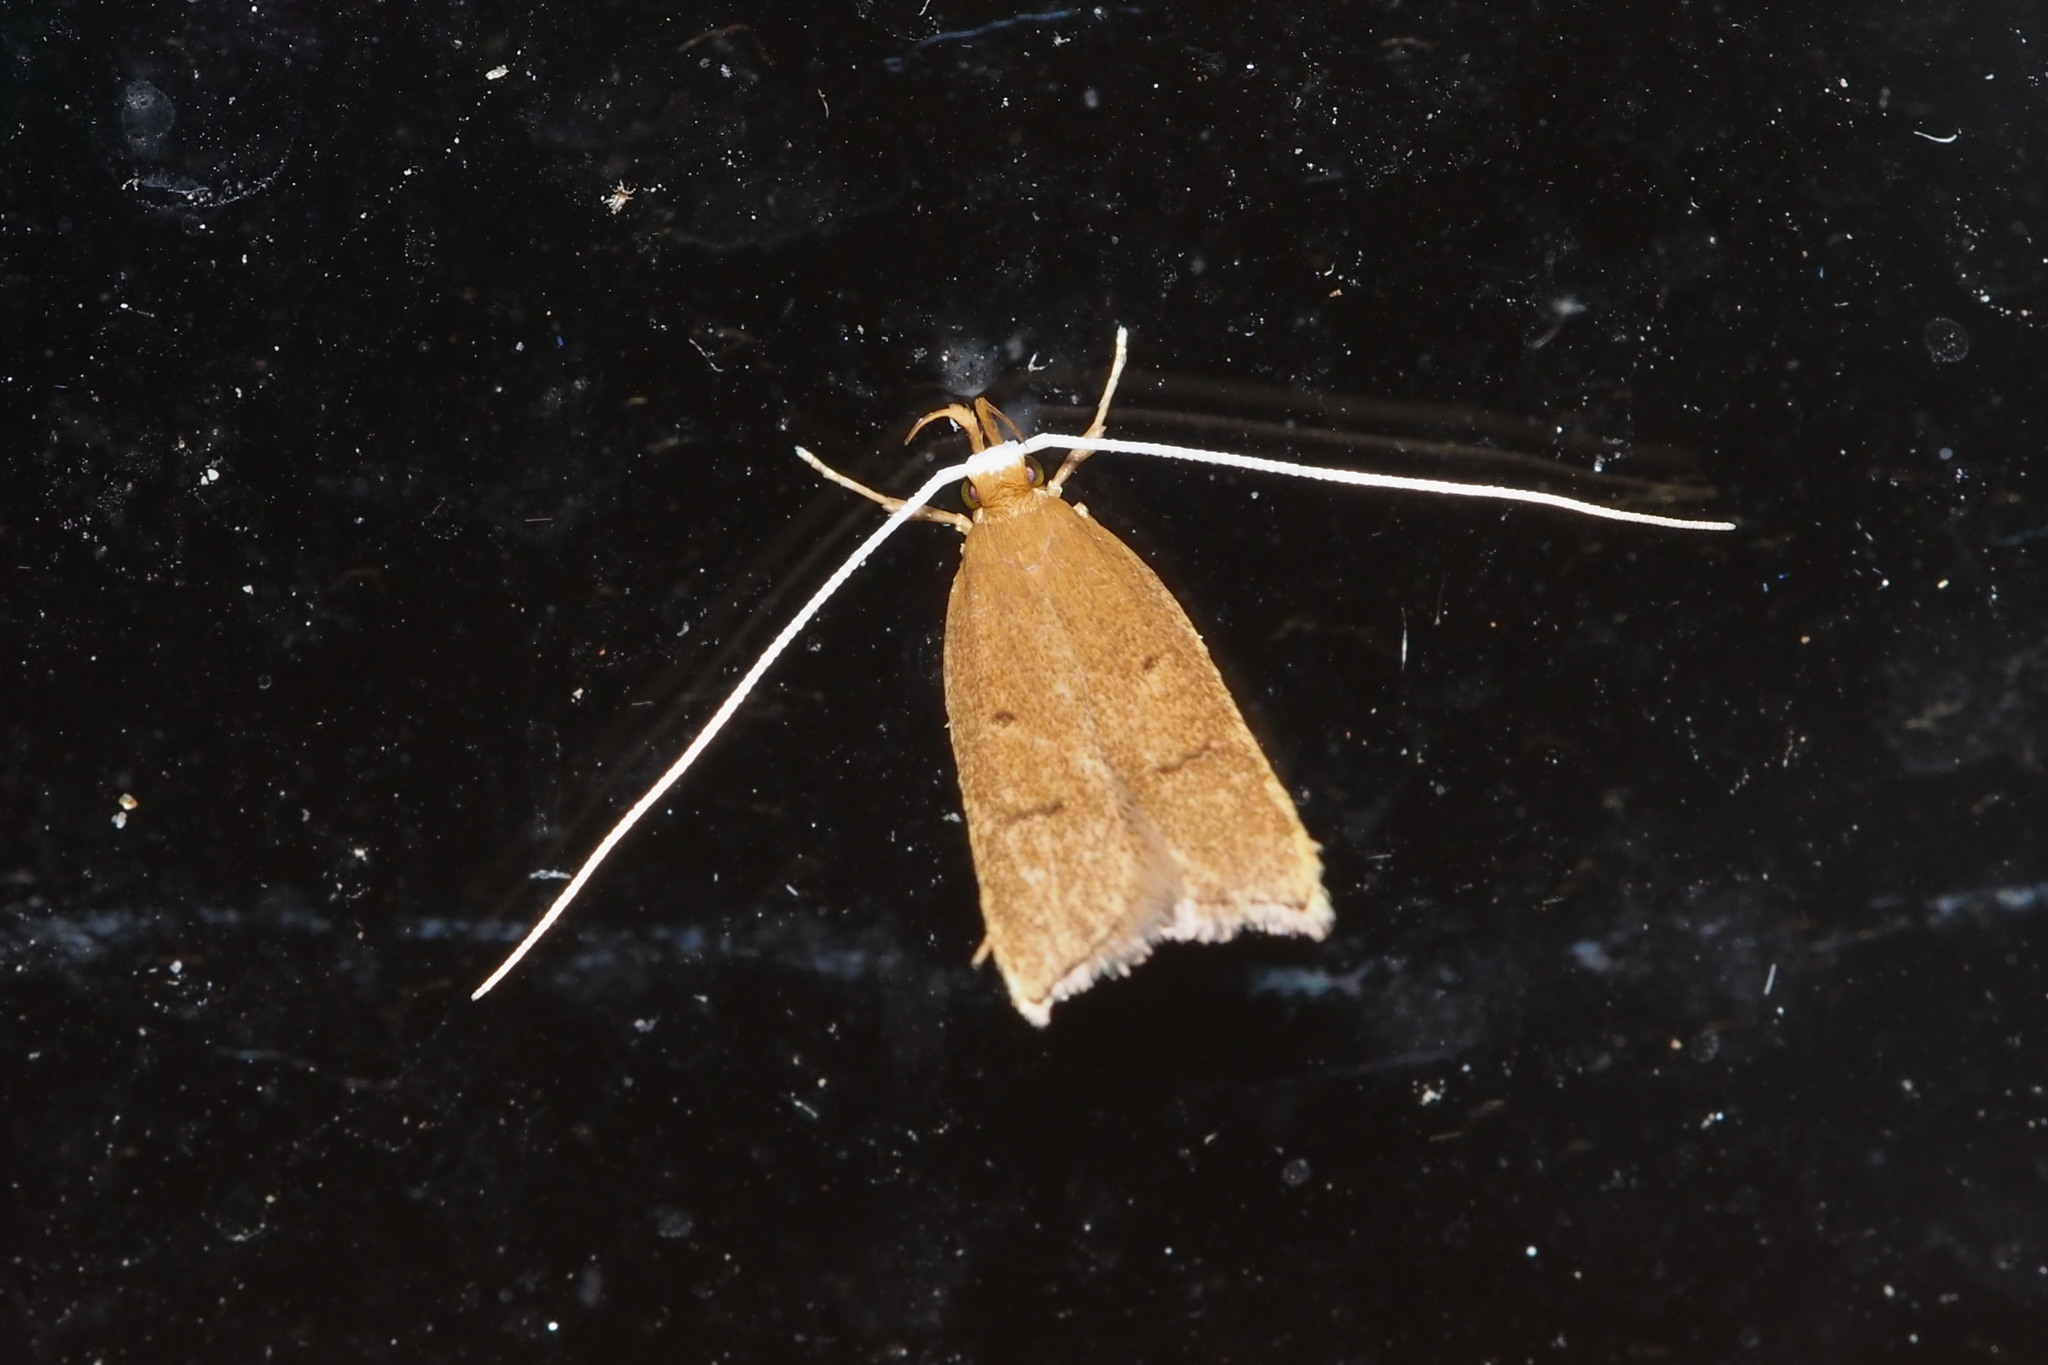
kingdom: Animalia
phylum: Arthropoda
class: Insecta
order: Lepidoptera
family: Lecithoceridae
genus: Lecitholaxa
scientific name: Lecitholaxa thiodora
